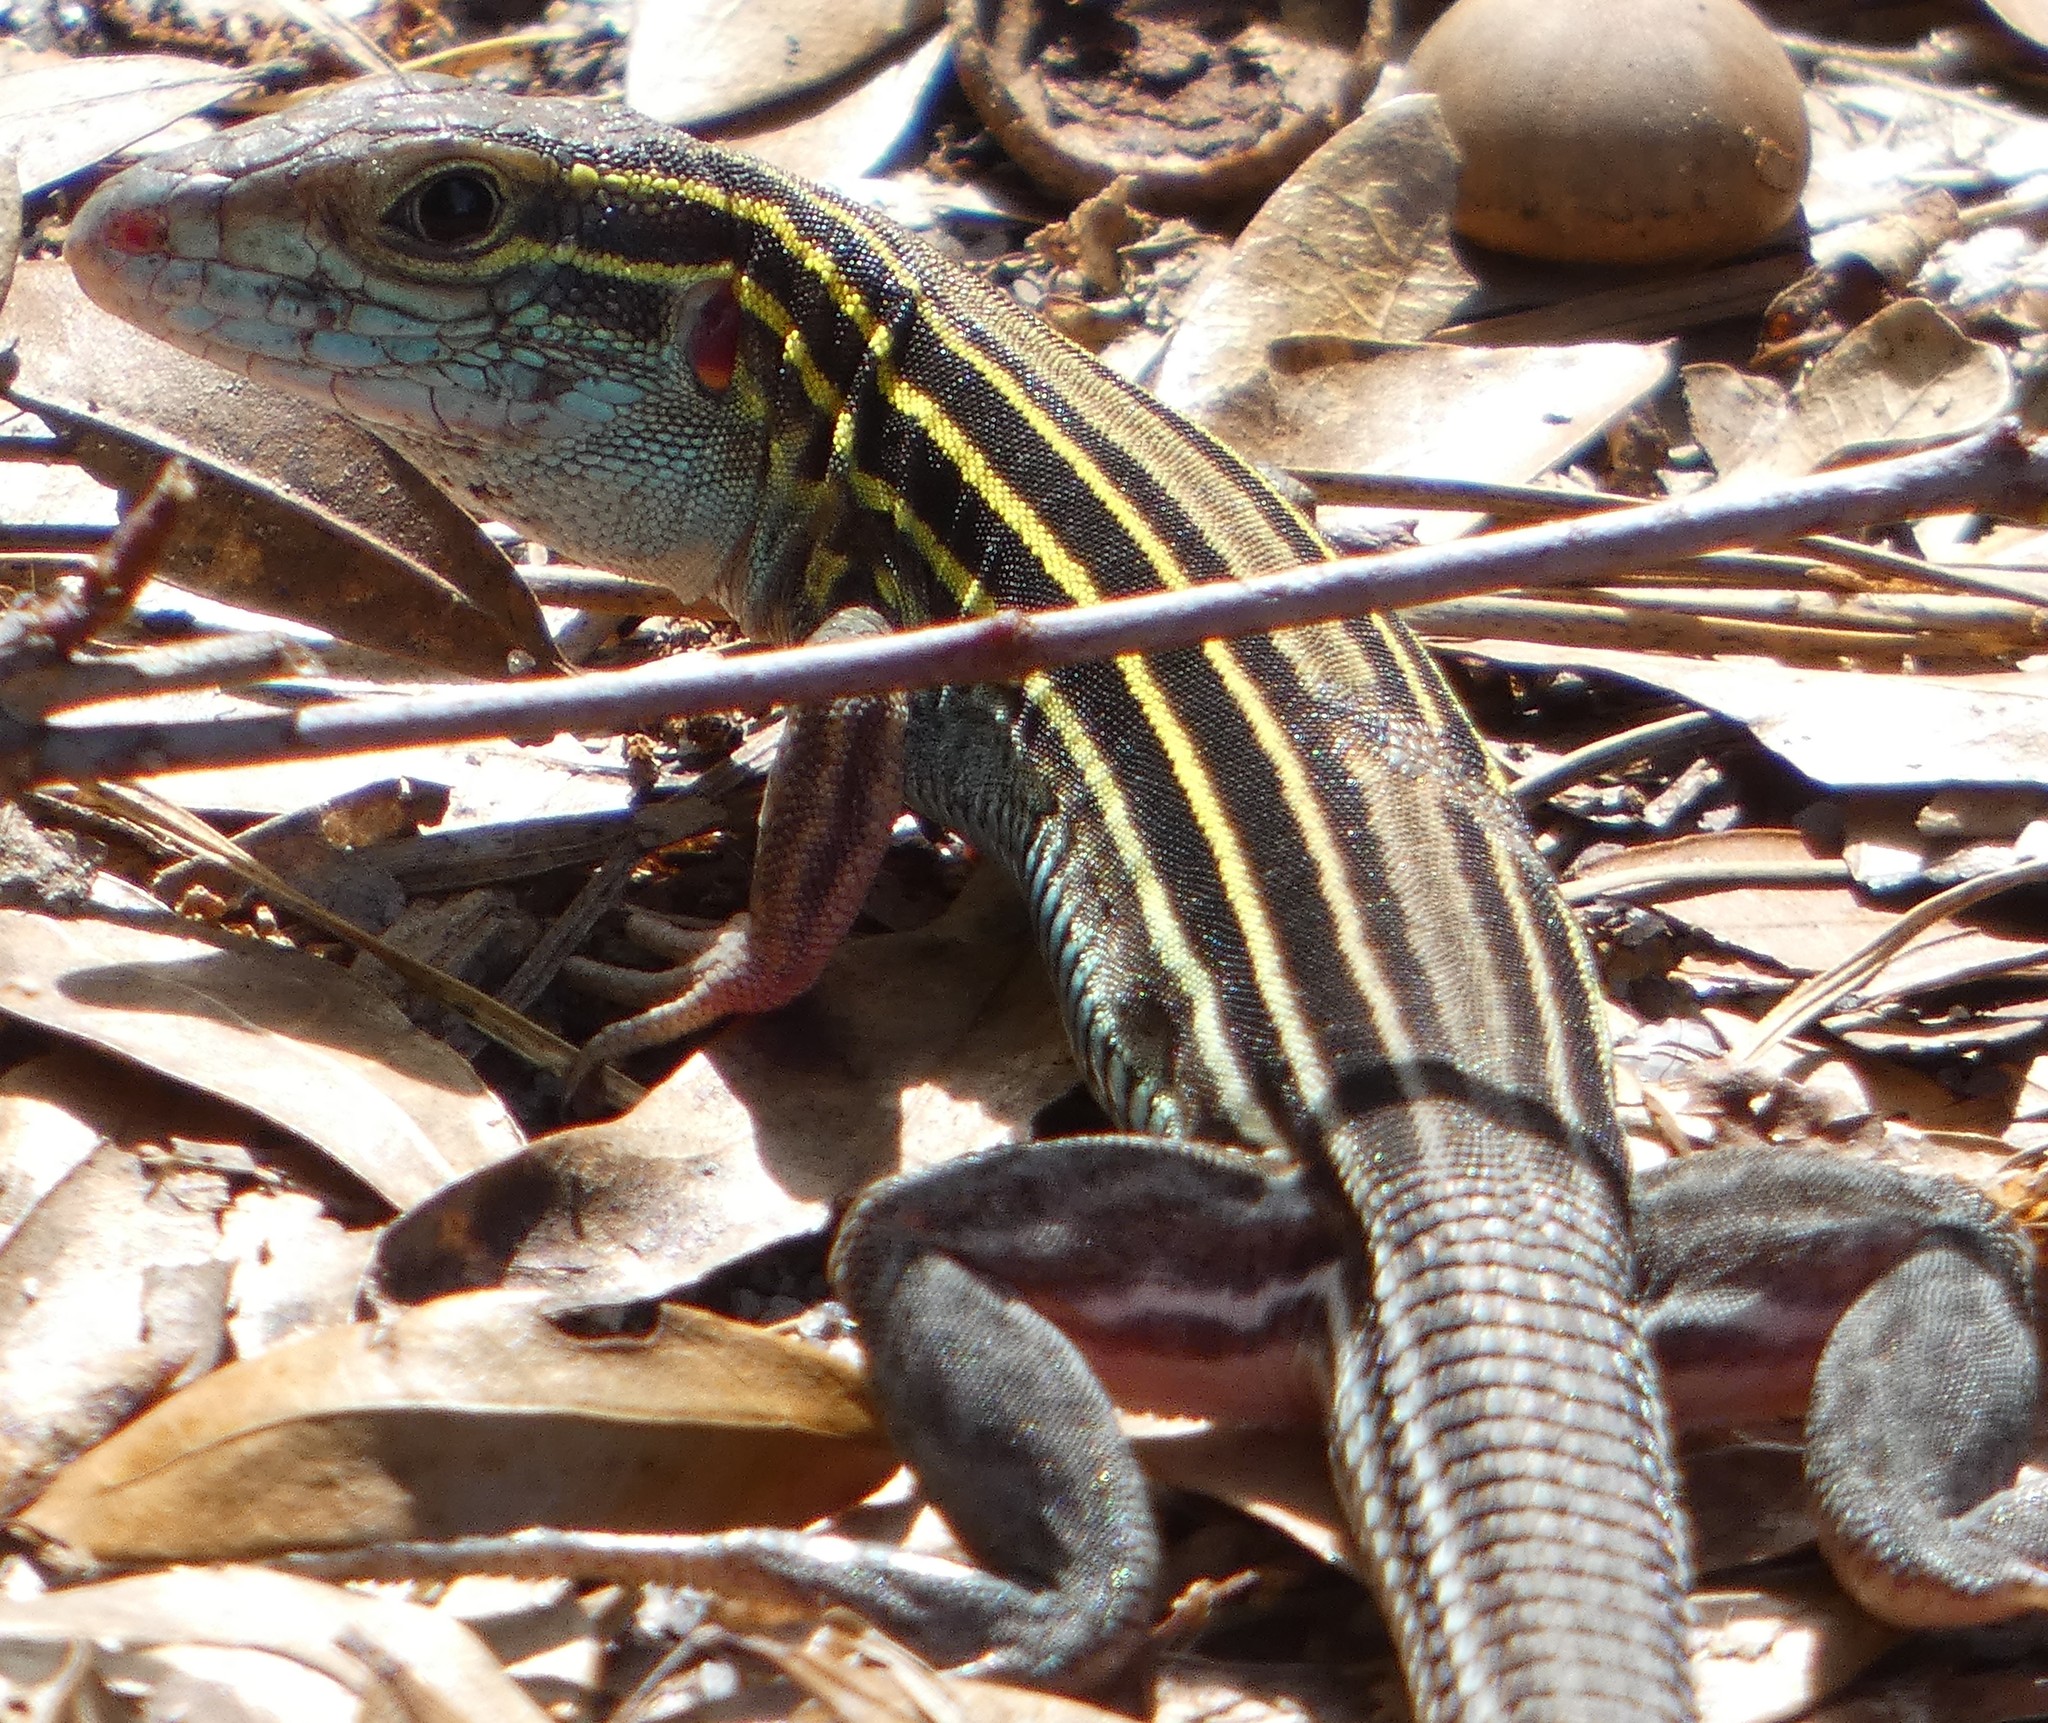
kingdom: Animalia
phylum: Chordata
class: Squamata
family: Teiidae
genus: Aspidoscelis
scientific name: Aspidoscelis sexlineatus
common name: Six-lined racerunner
